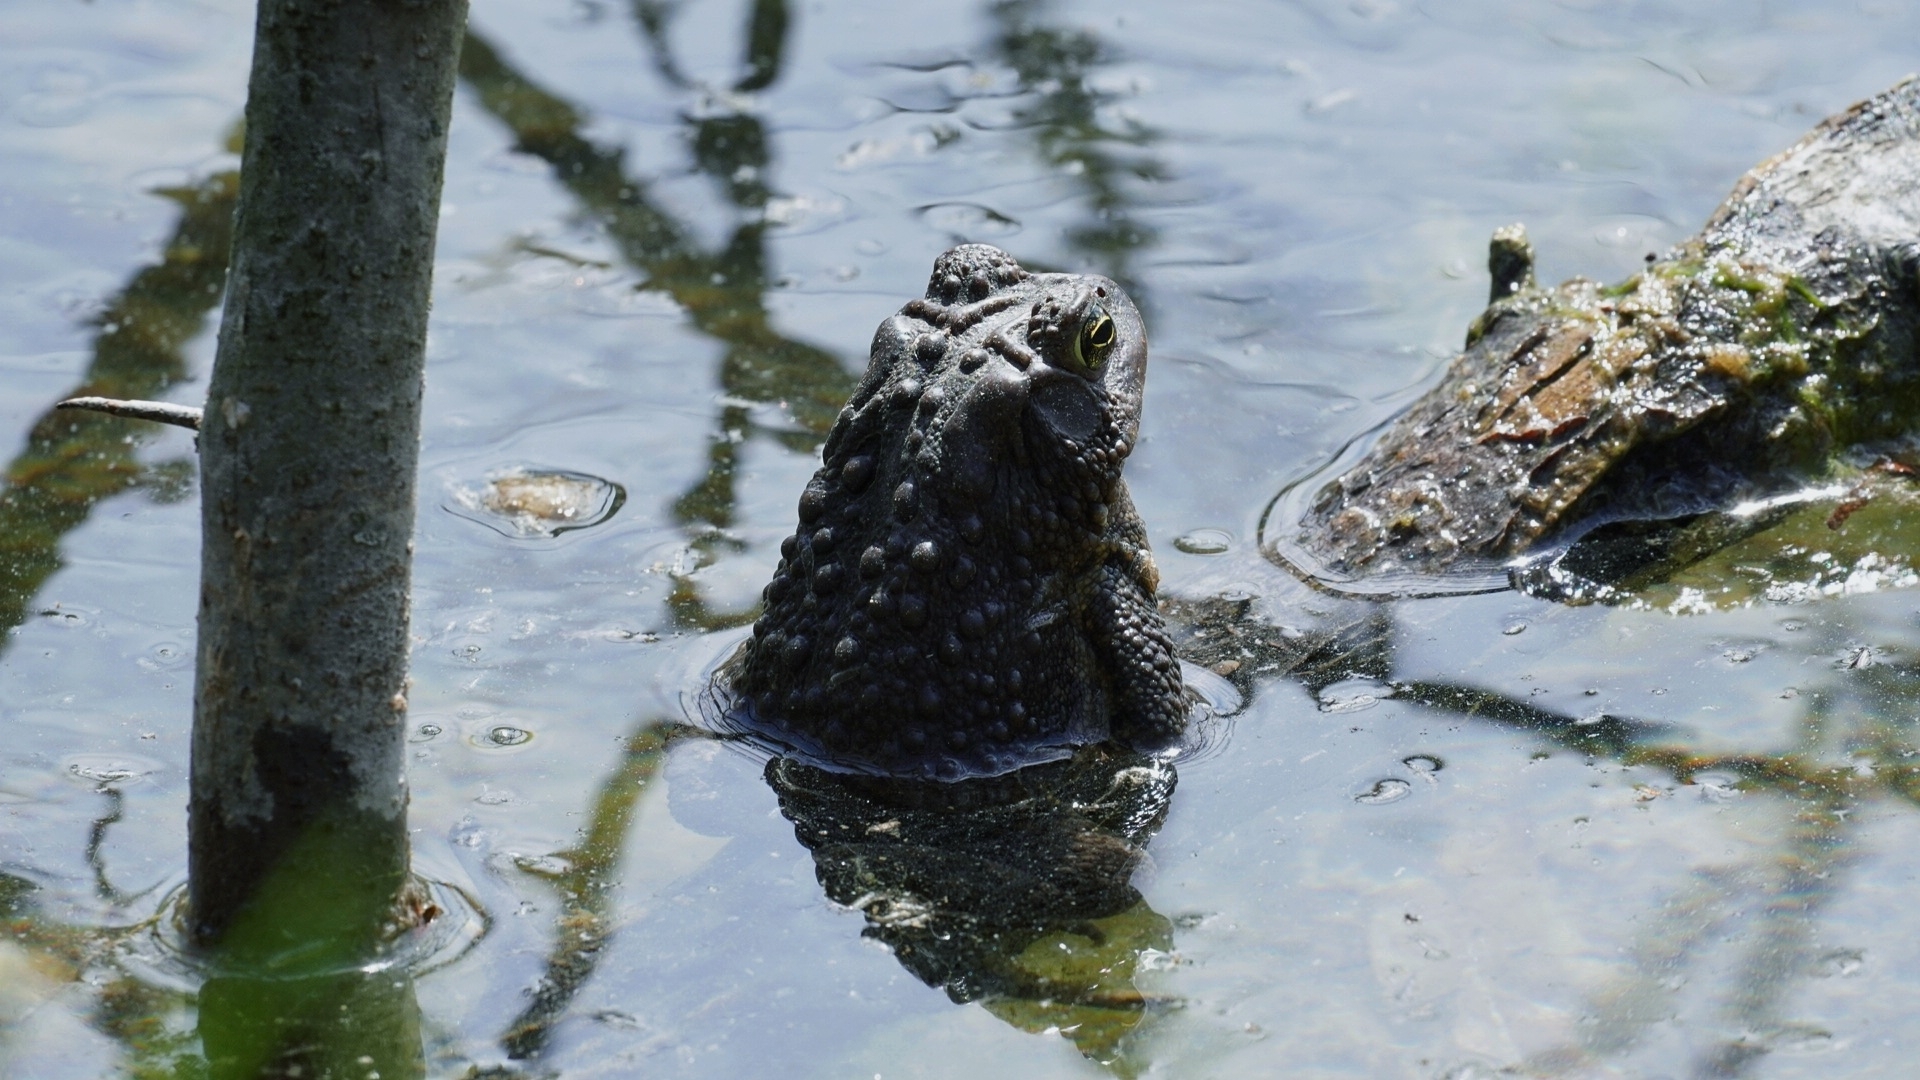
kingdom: Animalia
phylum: Chordata
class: Amphibia
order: Anura
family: Bufonidae
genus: Anaxyrus
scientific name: Anaxyrus americanus
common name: American toad
